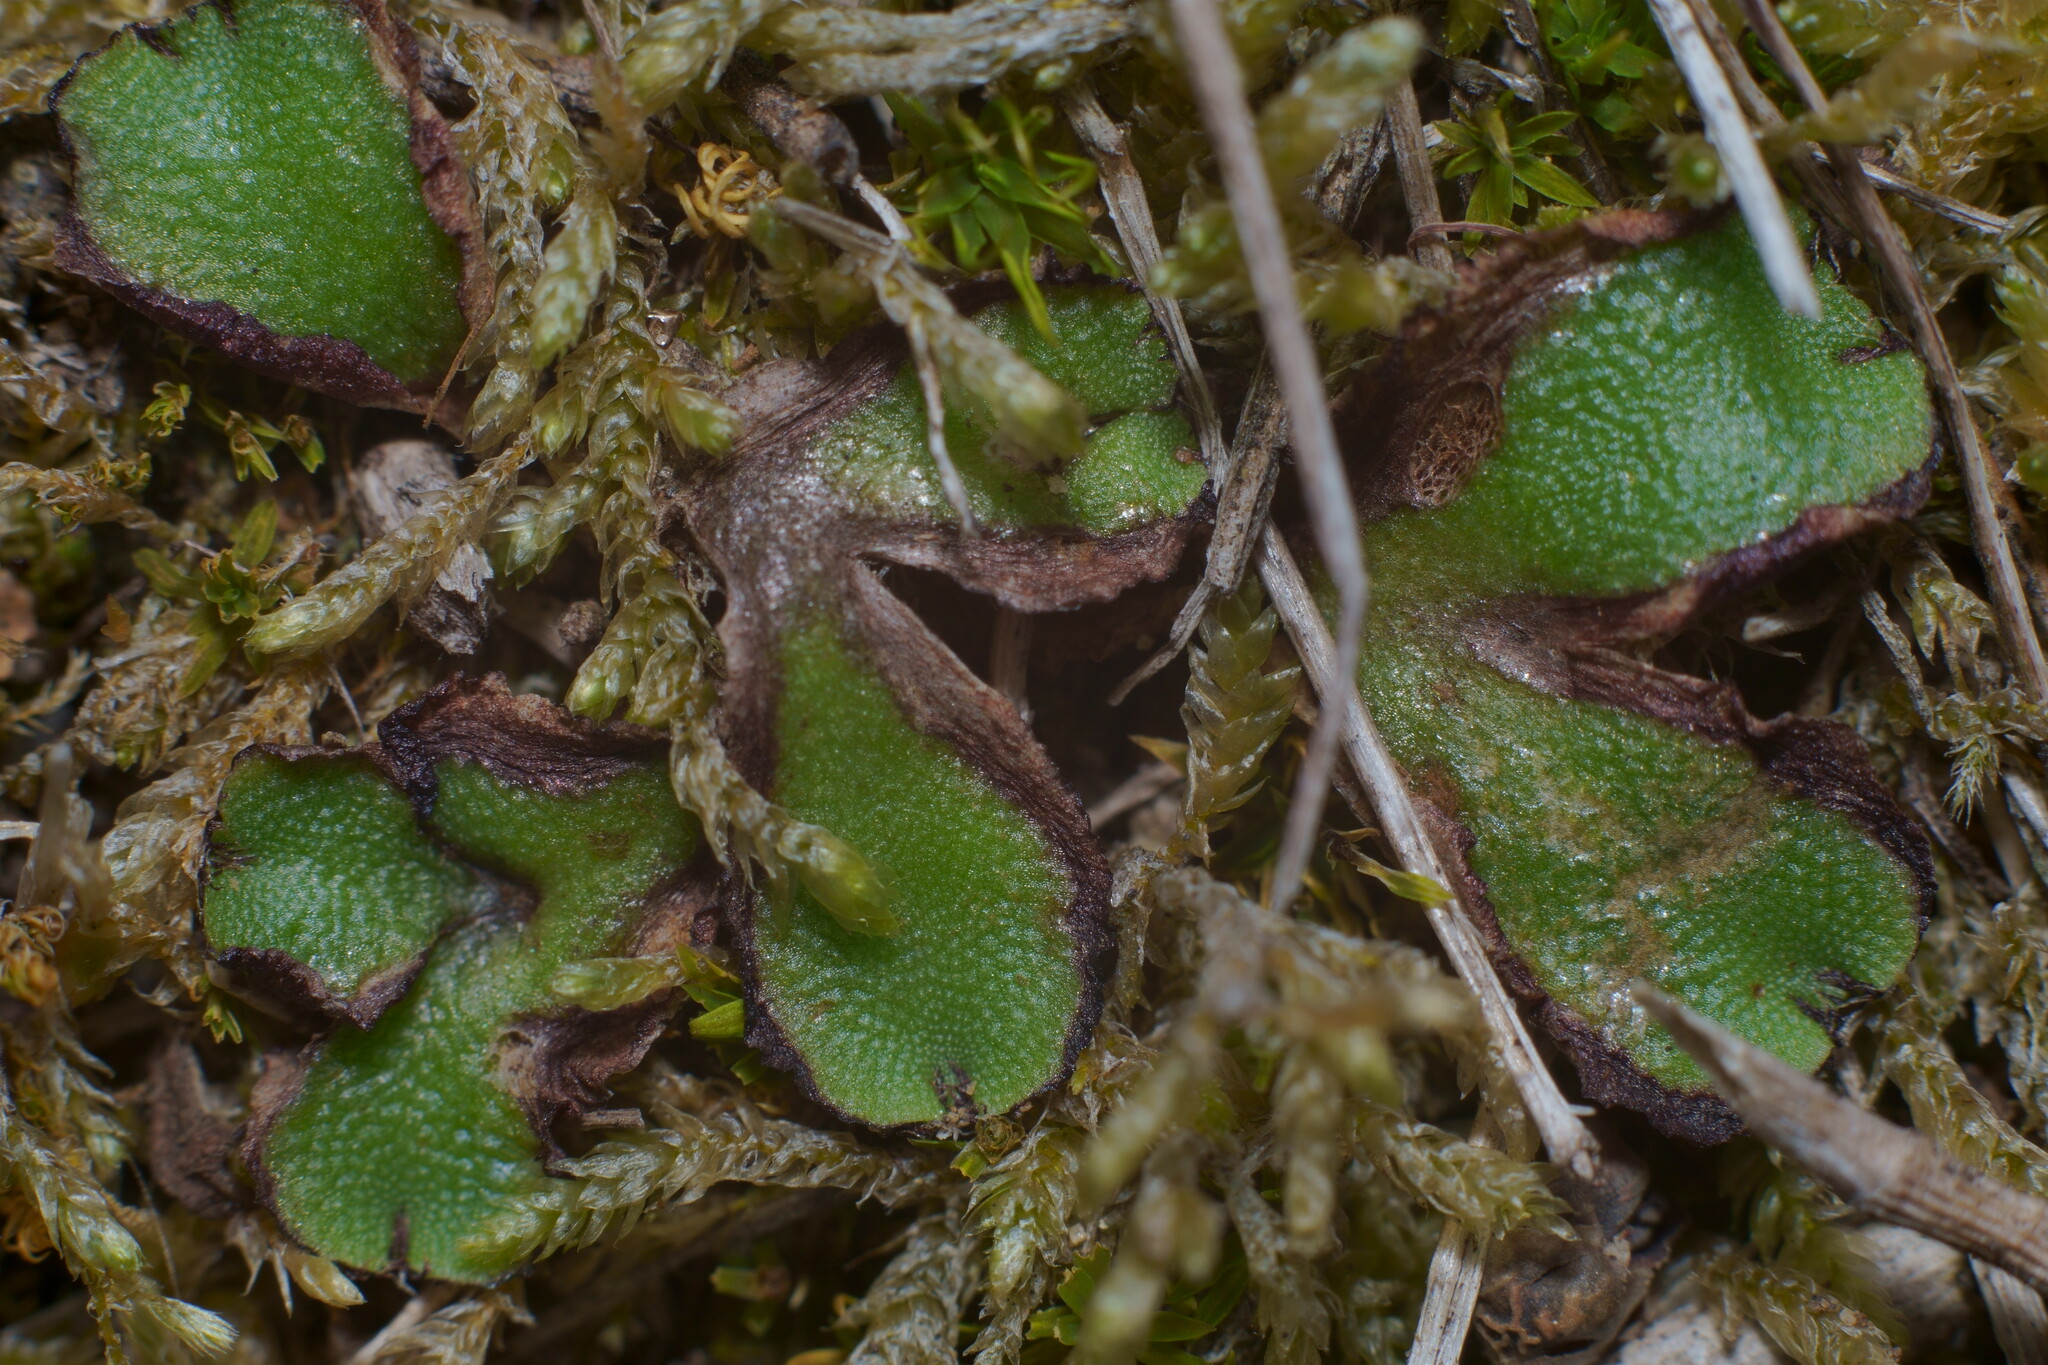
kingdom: Plantae
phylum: Marchantiophyta
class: Marchantiopsida
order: Marchantiales
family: Aytoniaceae
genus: Asterella
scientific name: Asterella californica
